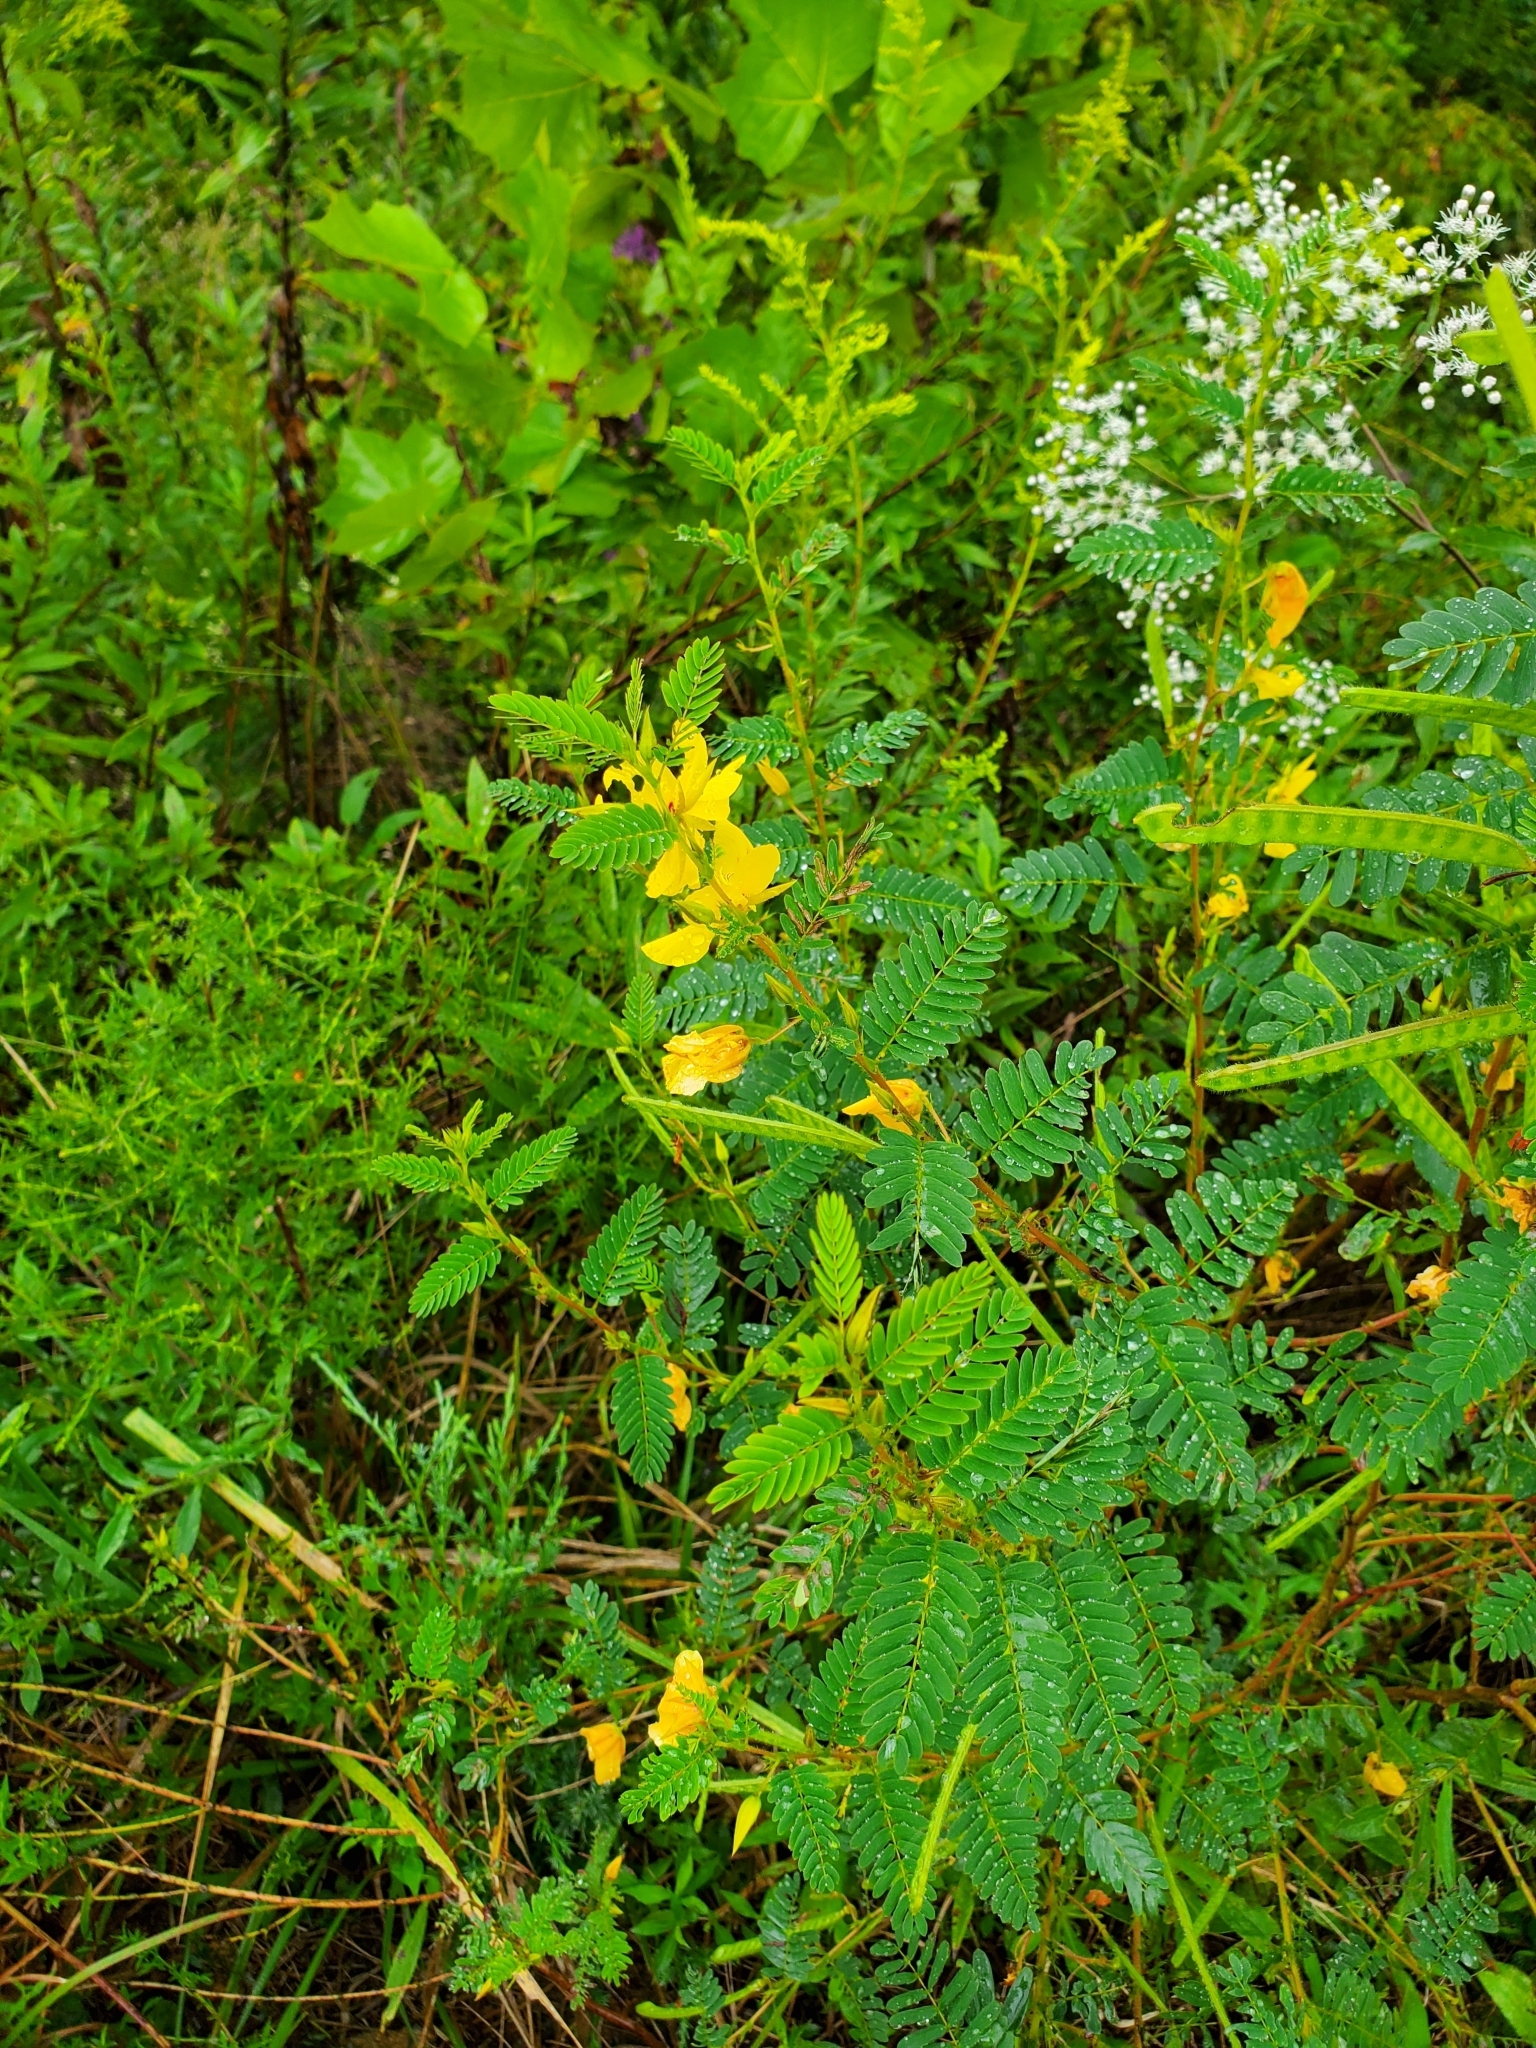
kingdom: Plantae
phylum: Tracheophyta
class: Magnoliopsida
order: Fabales
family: Fabaceae
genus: Chamaecrista
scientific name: Chamaecrista fasciculata
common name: Golden cassia
